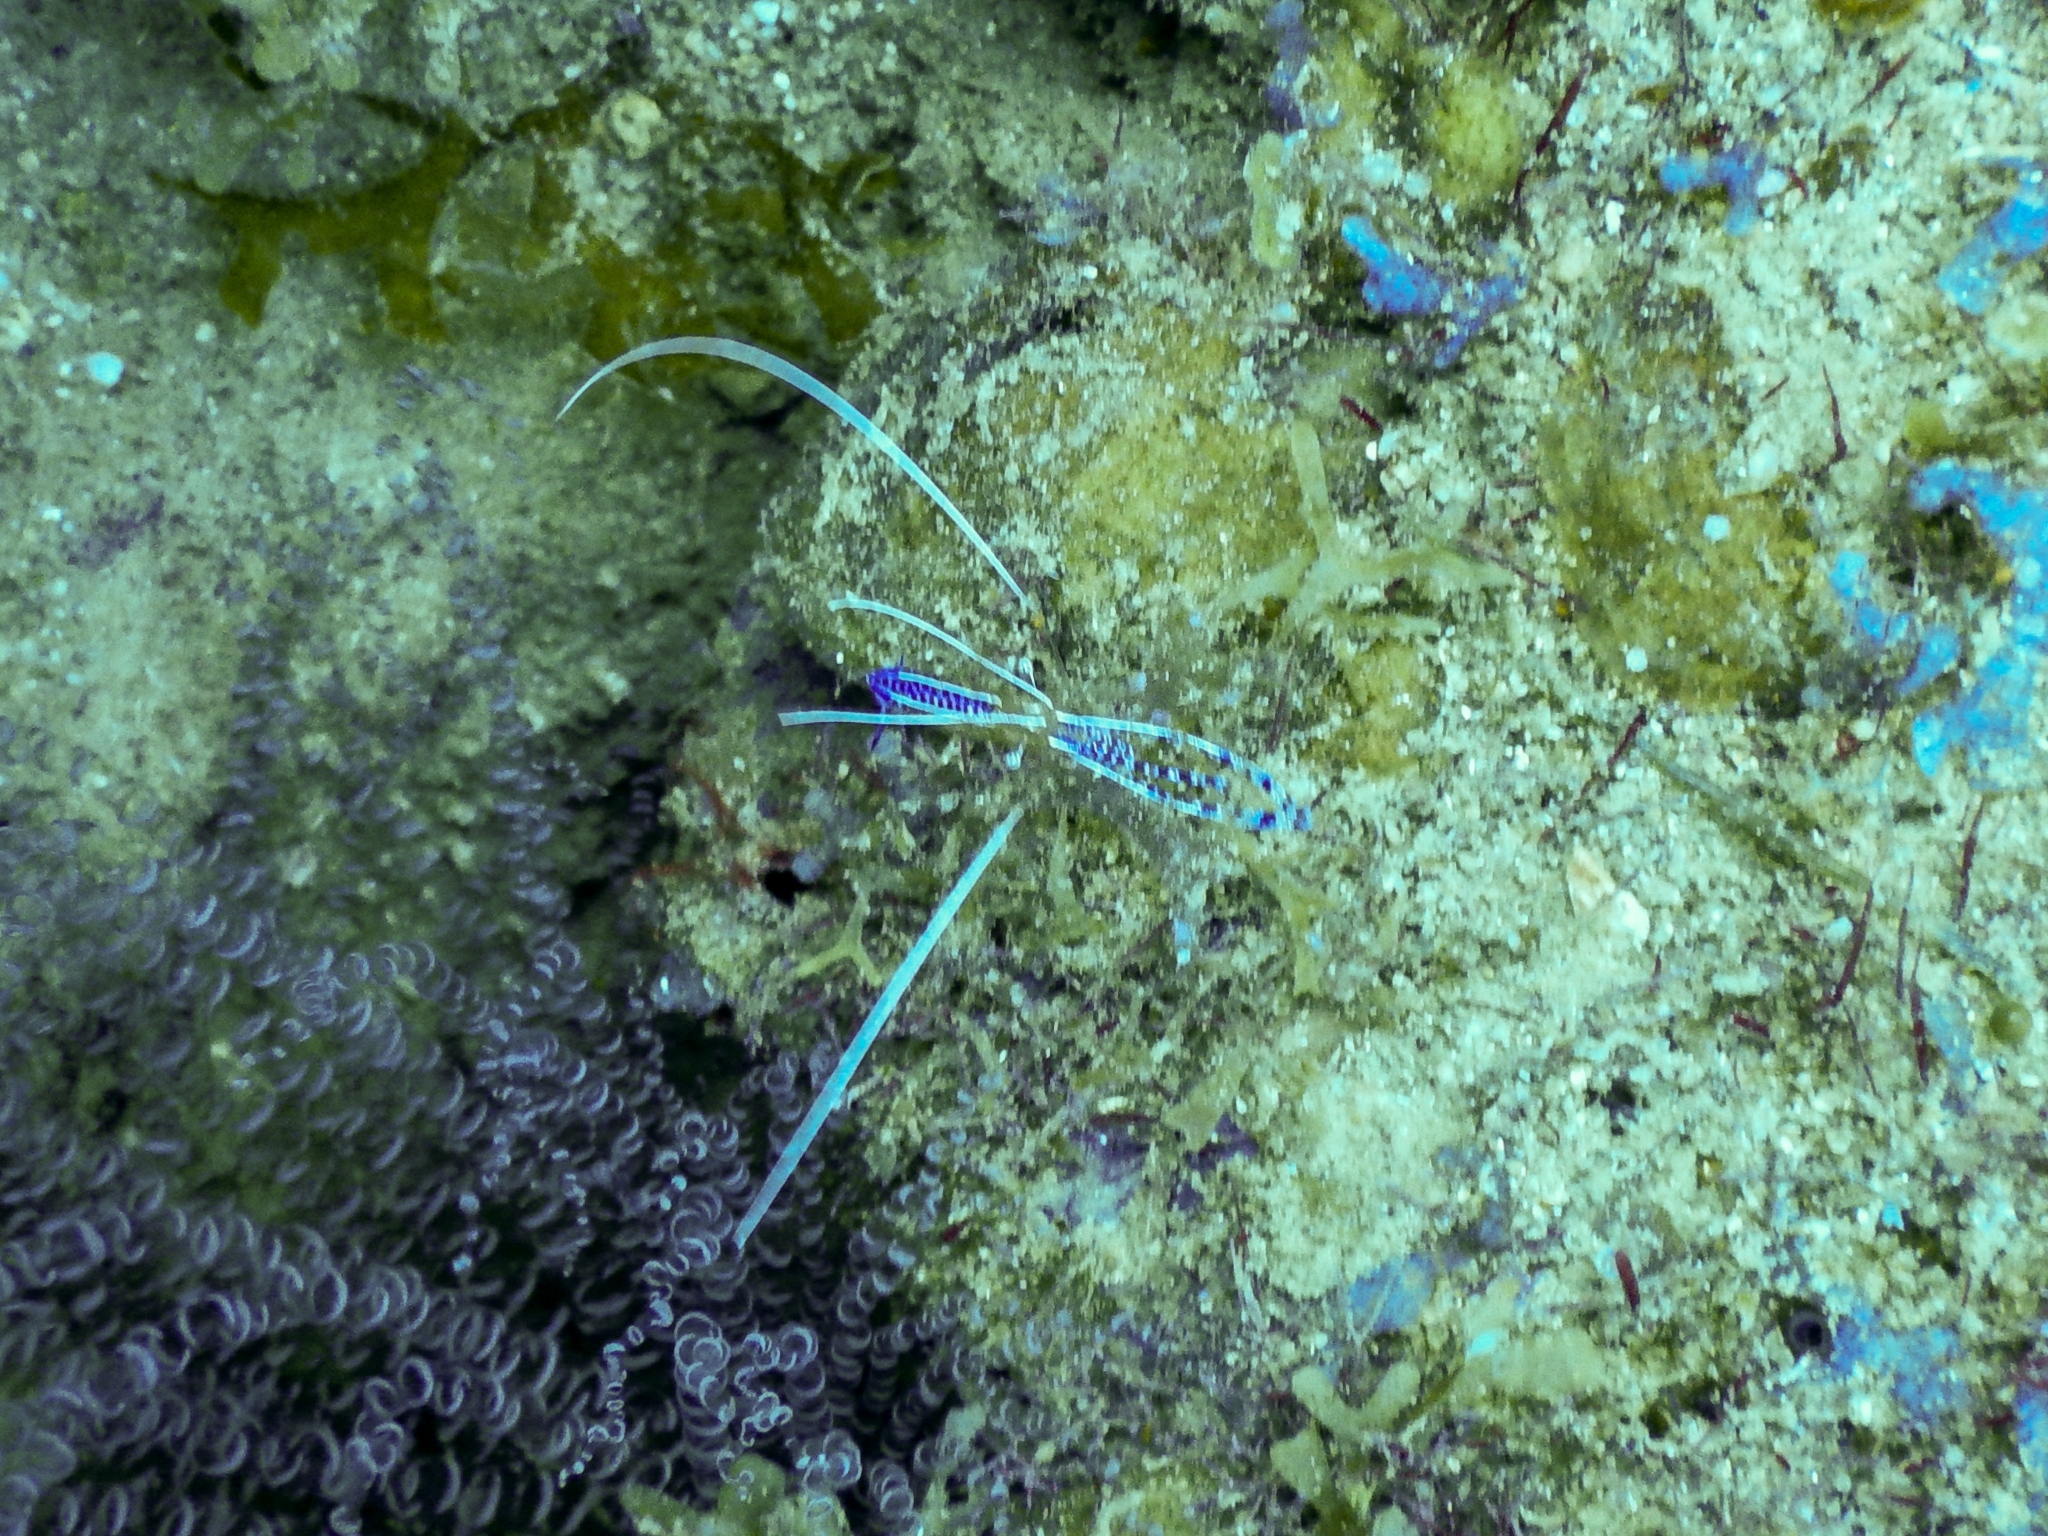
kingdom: Animalia
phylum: Arthropoda
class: Malacostraca
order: Decapoda
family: Palaemonidae
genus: Ancylomenes
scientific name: Ancylomenes pedersoni
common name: Pederson's cleaning shrimp
